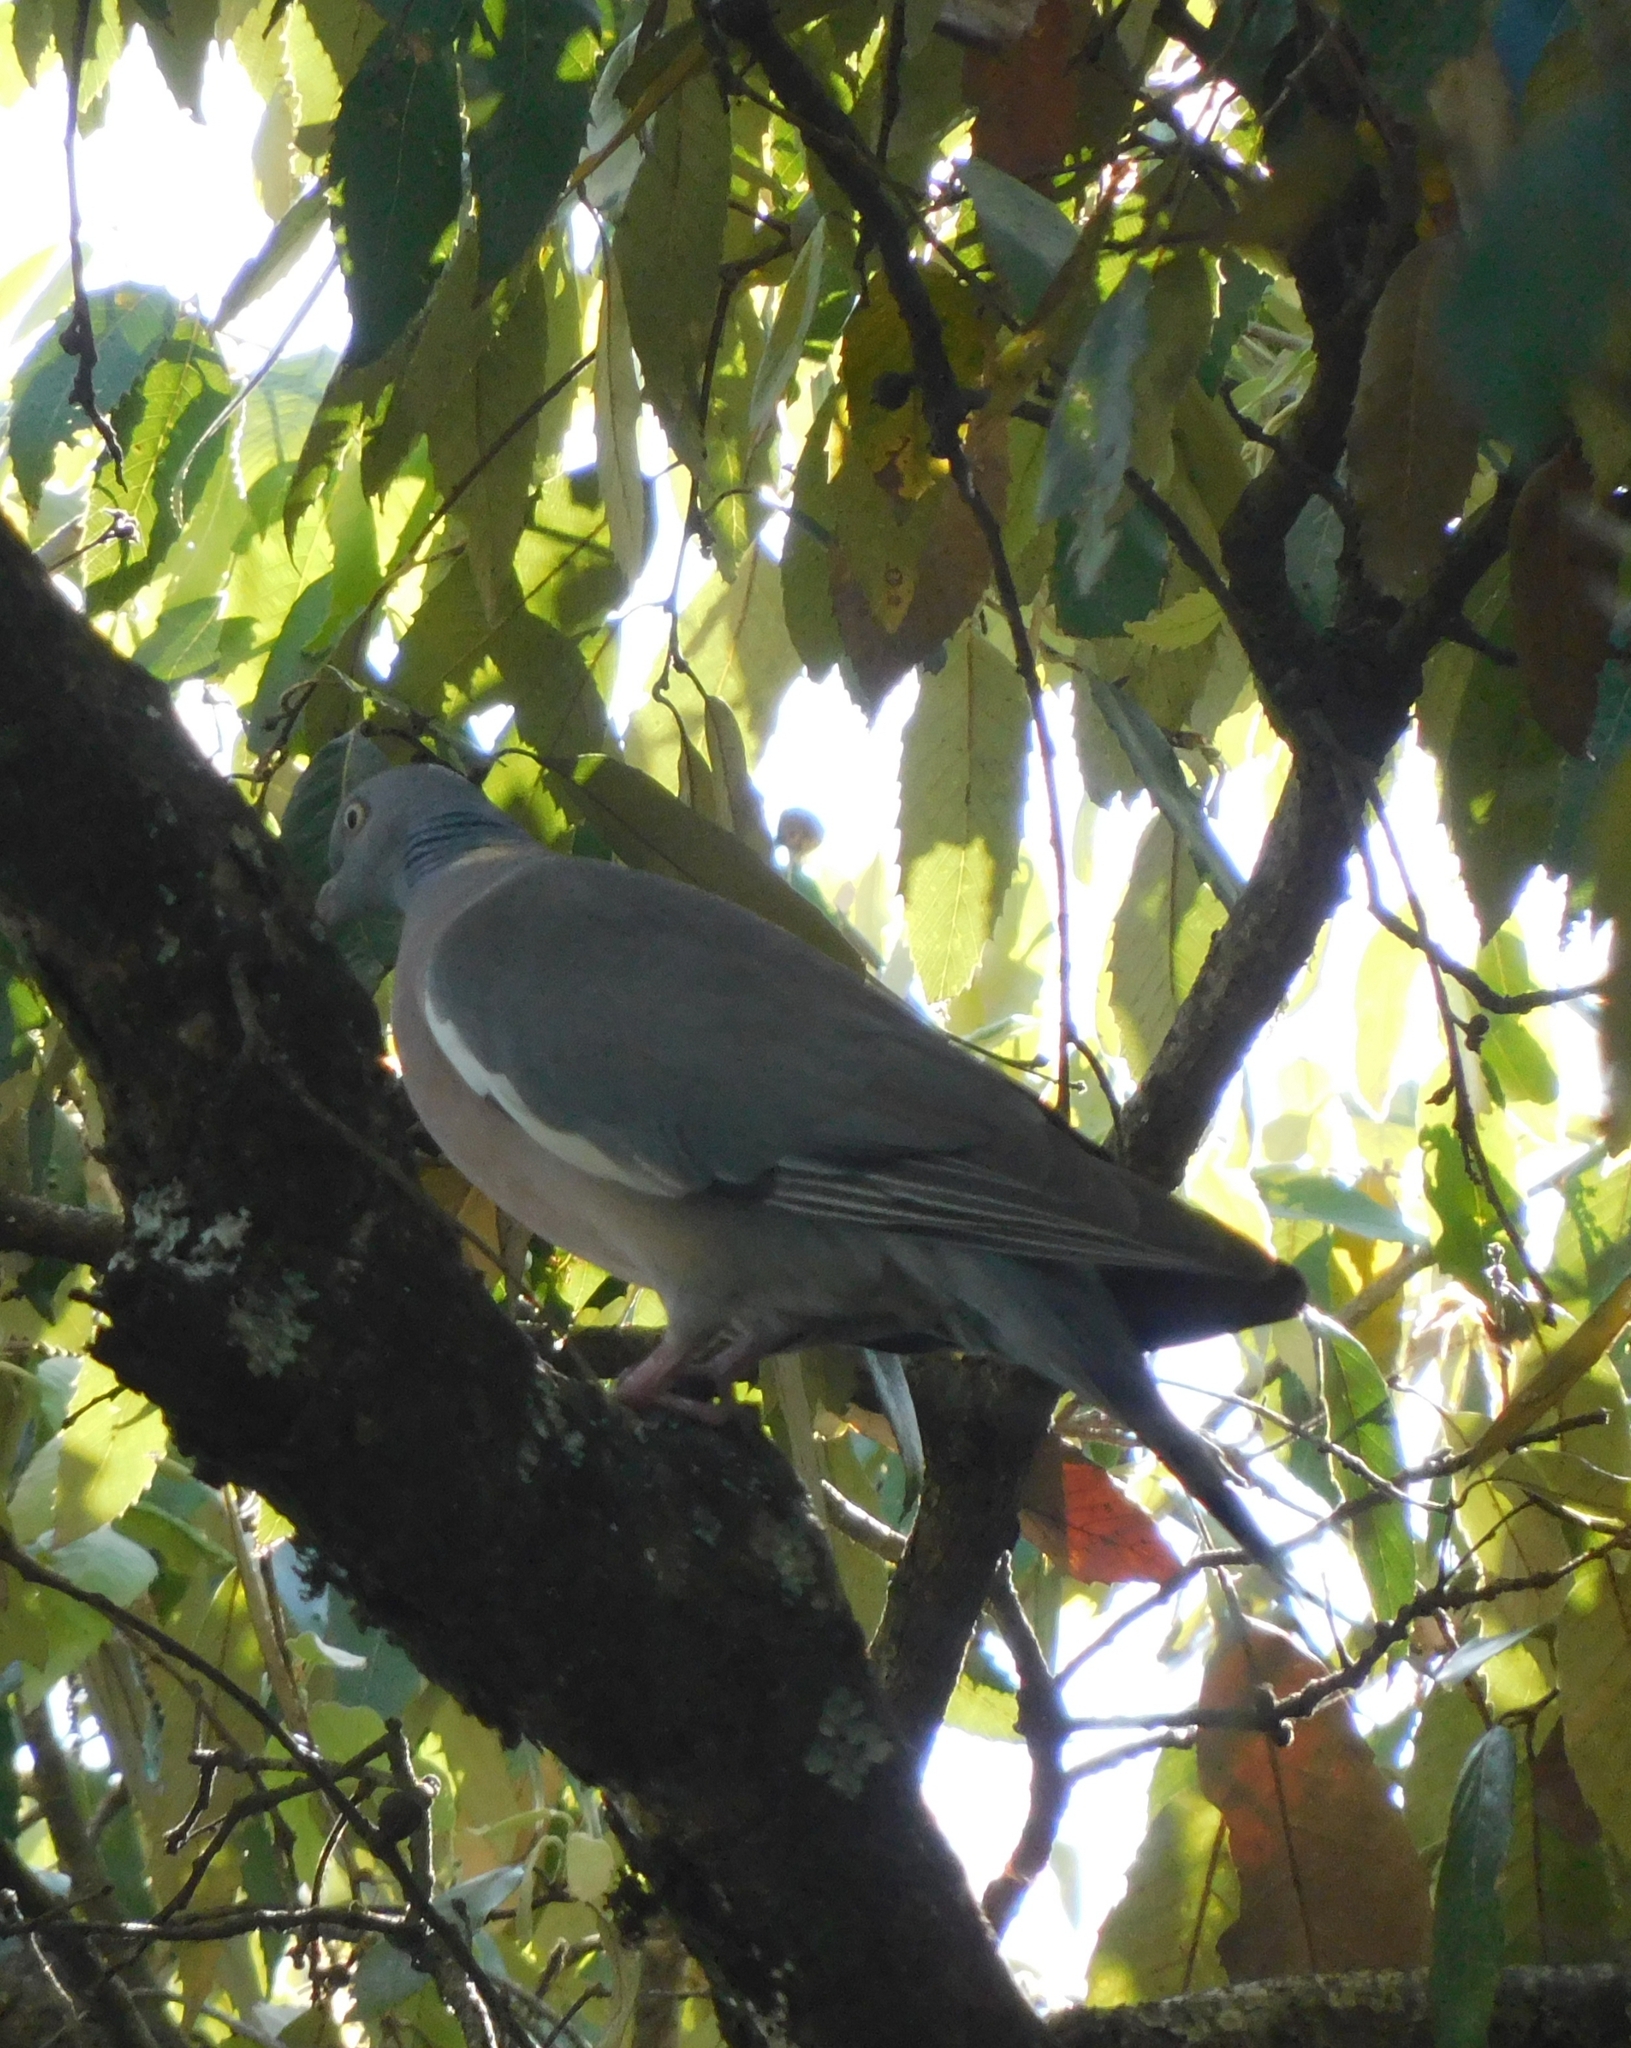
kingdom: Animalia
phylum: Chordata
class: Aves
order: Columbiformes
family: Columbidae
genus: Columba
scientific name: Columba palumbus
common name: Common wood pigeon
